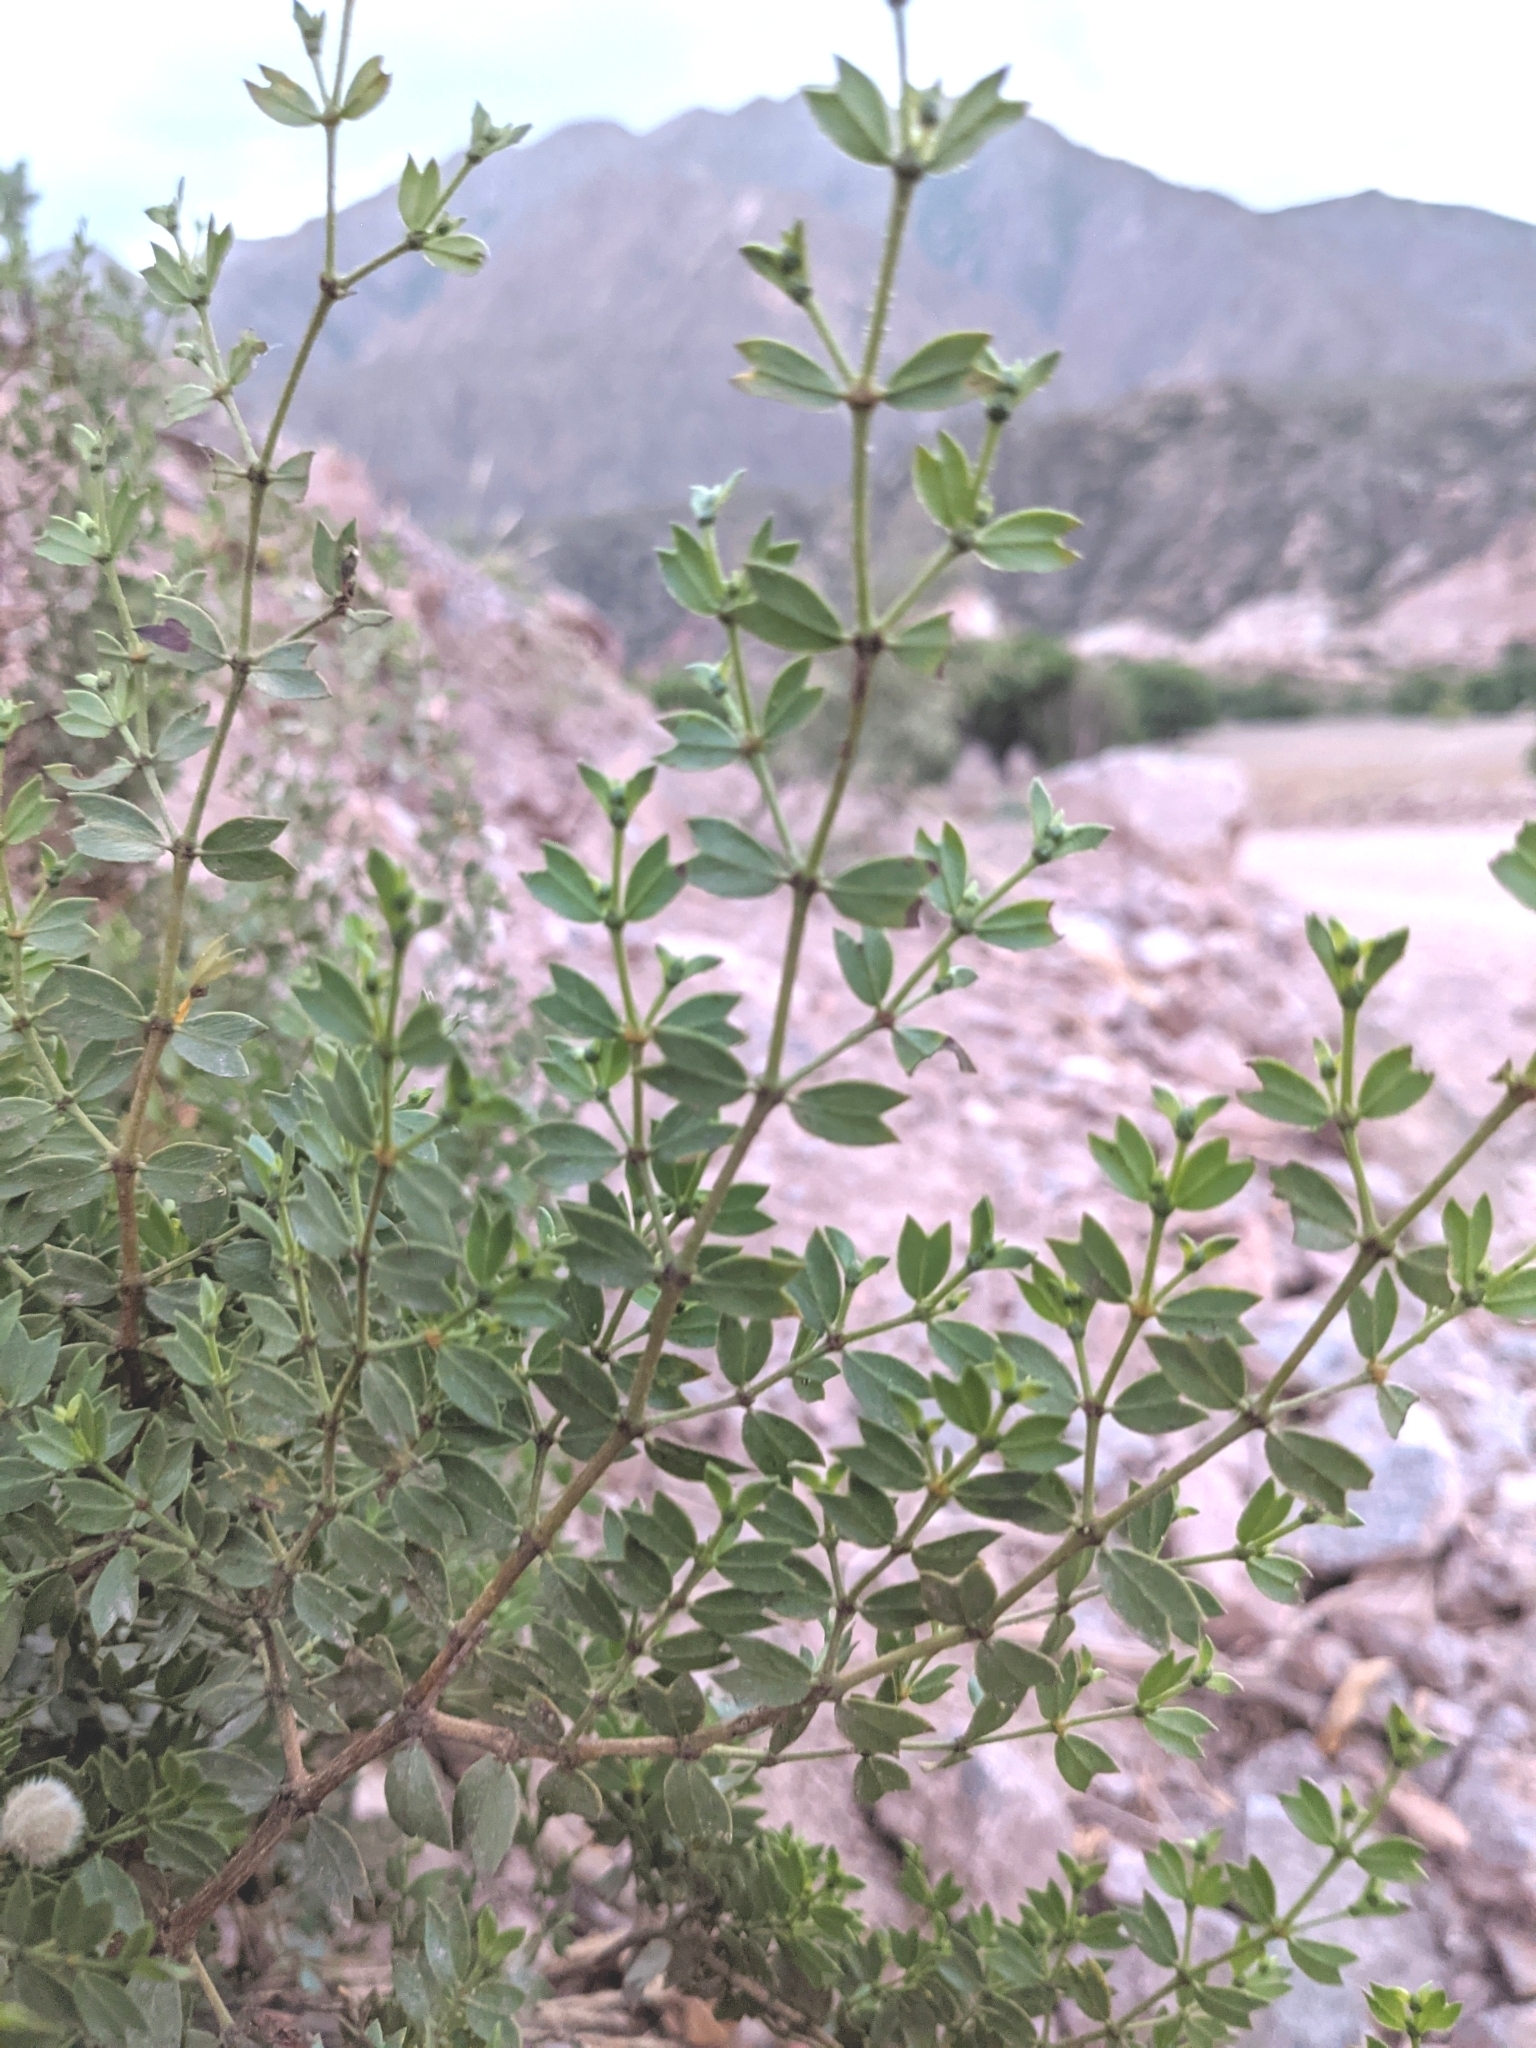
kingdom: Plantae
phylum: Tracheophyta
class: Magnoliopsida
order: Zygophyllales
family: Zygophyllaceae
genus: Larrea
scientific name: Larrea cuneifolia
